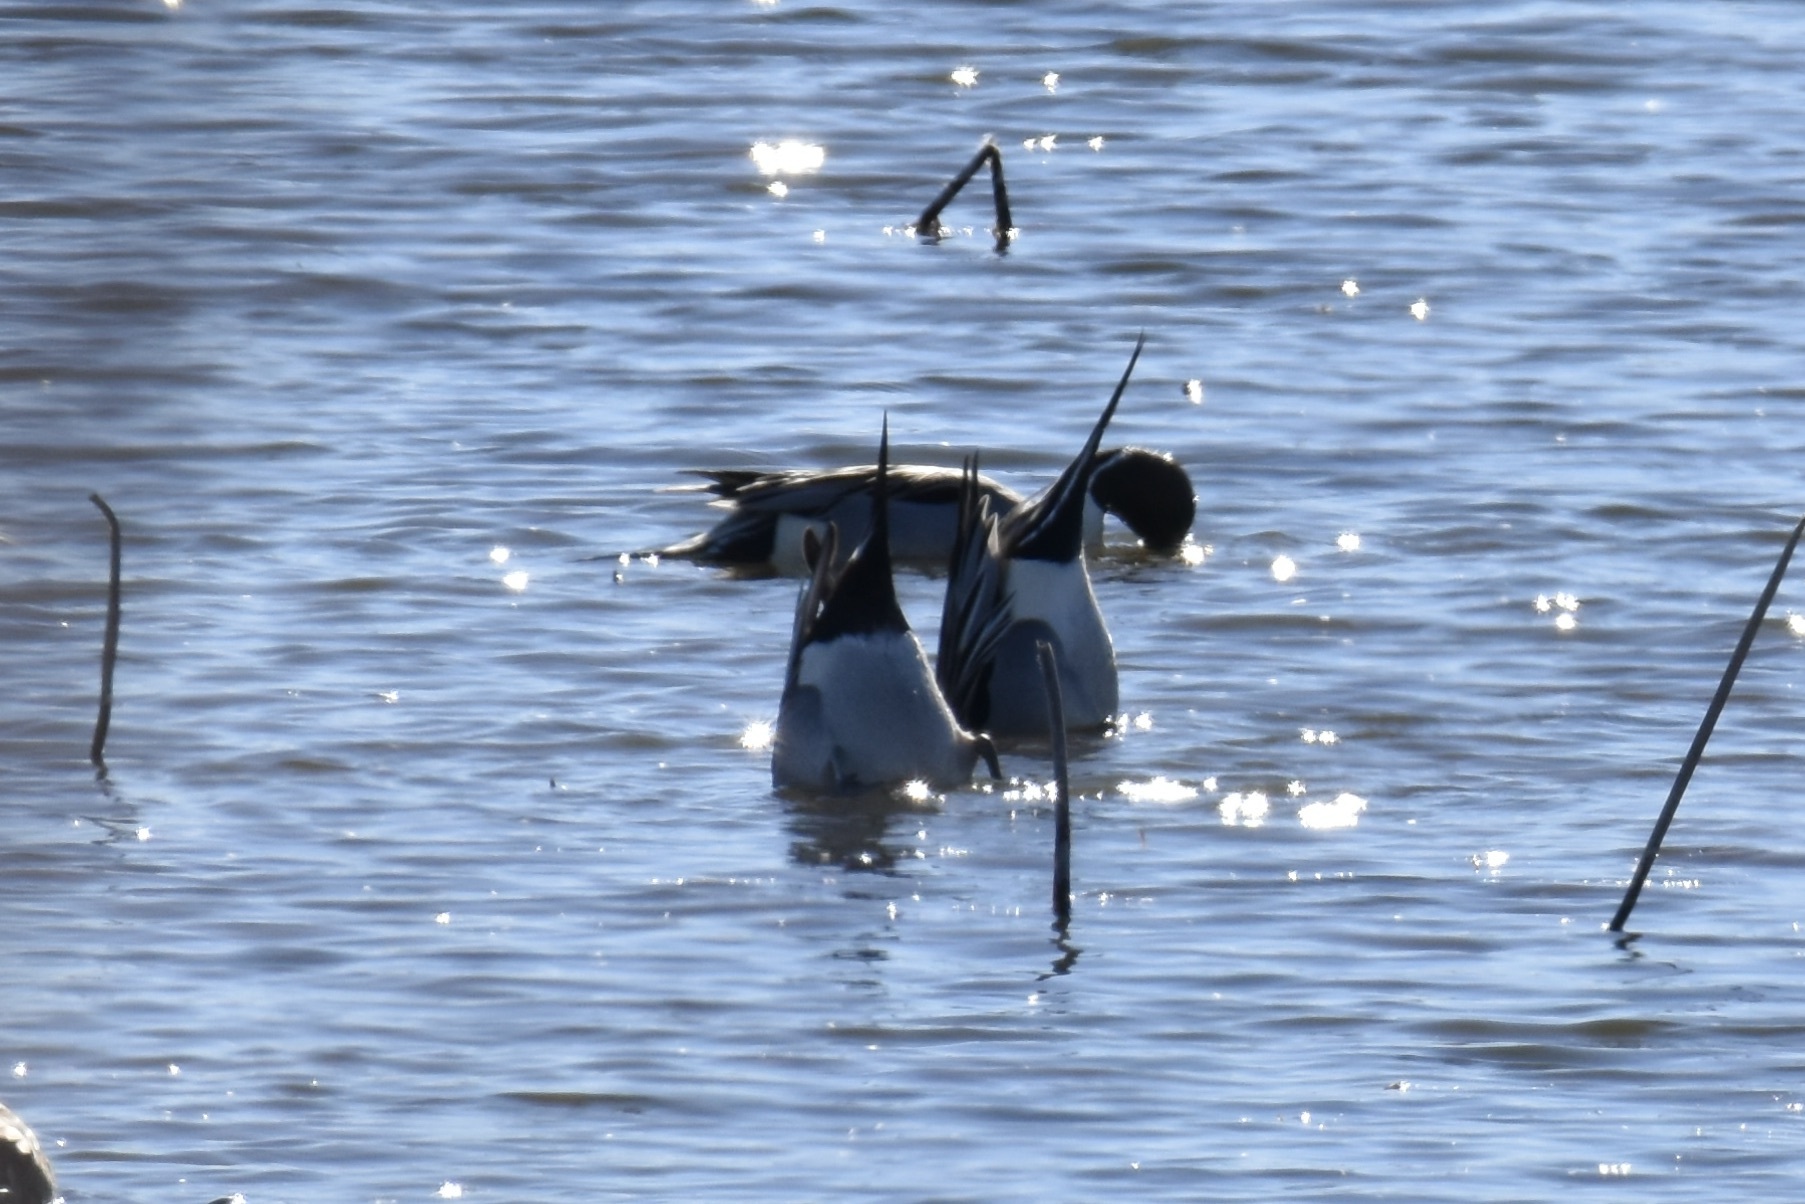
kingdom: Animalia
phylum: Chordata
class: Aves
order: Anseriformes
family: Anatidae
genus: Anas
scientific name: Anas acuta
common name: Northern pintail
